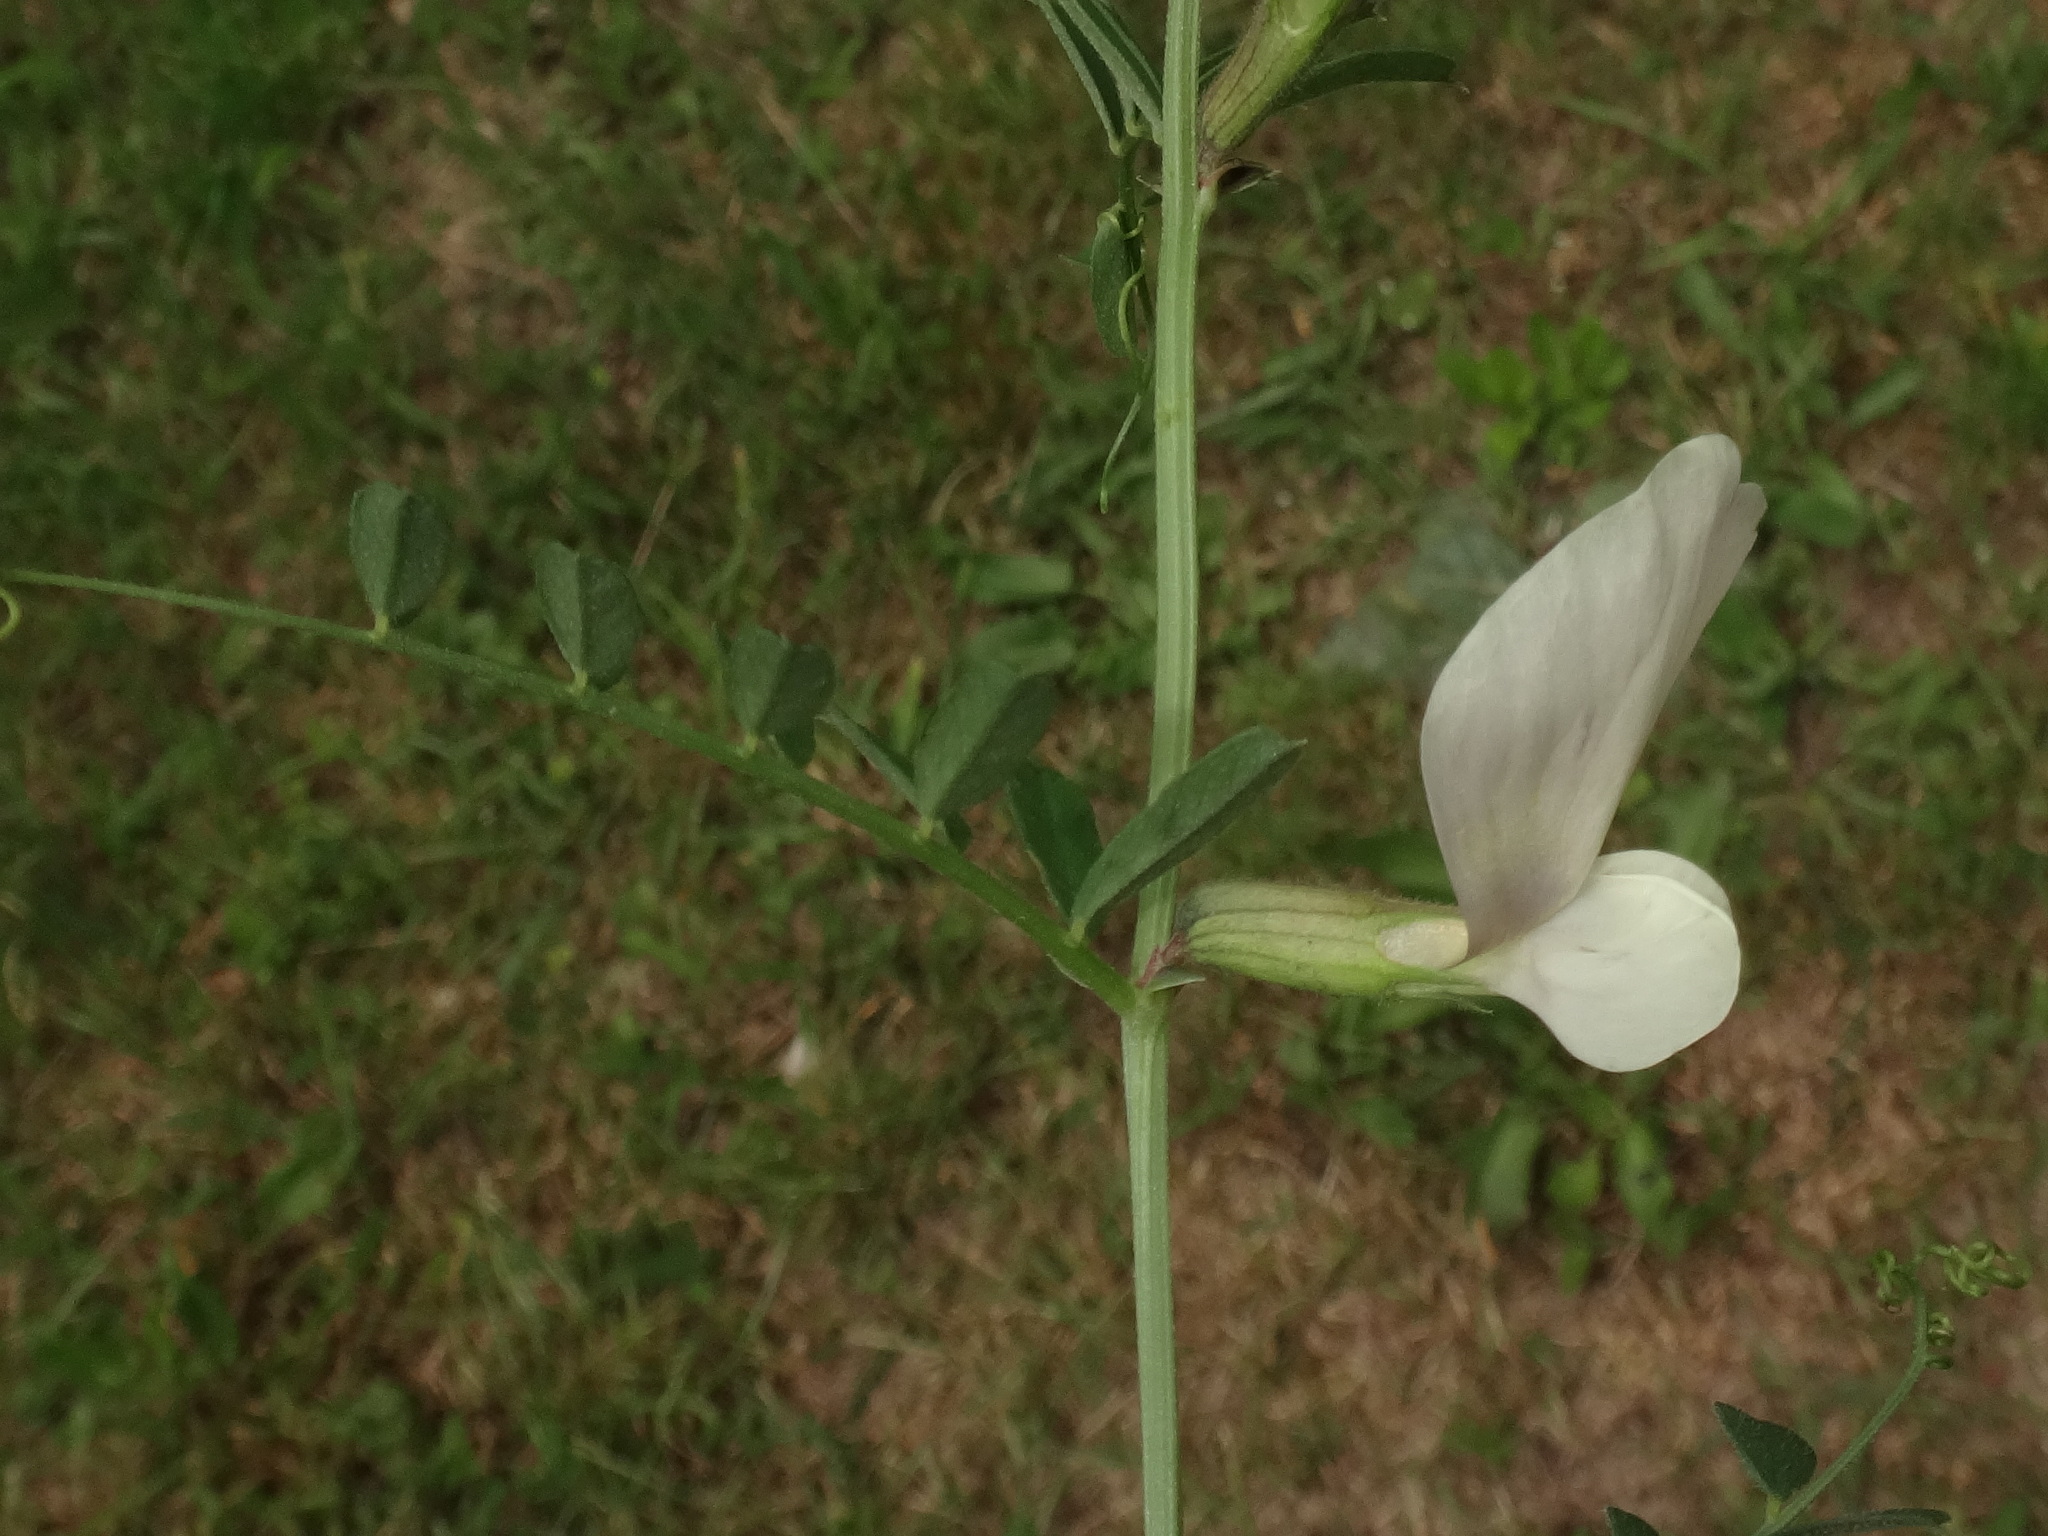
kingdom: Plantae
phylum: Tracheophyta
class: Magnoliopsida
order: Fabales
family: Fabaceae
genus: Vicia
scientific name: Vicia grandiflora
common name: Large yellow vetch
